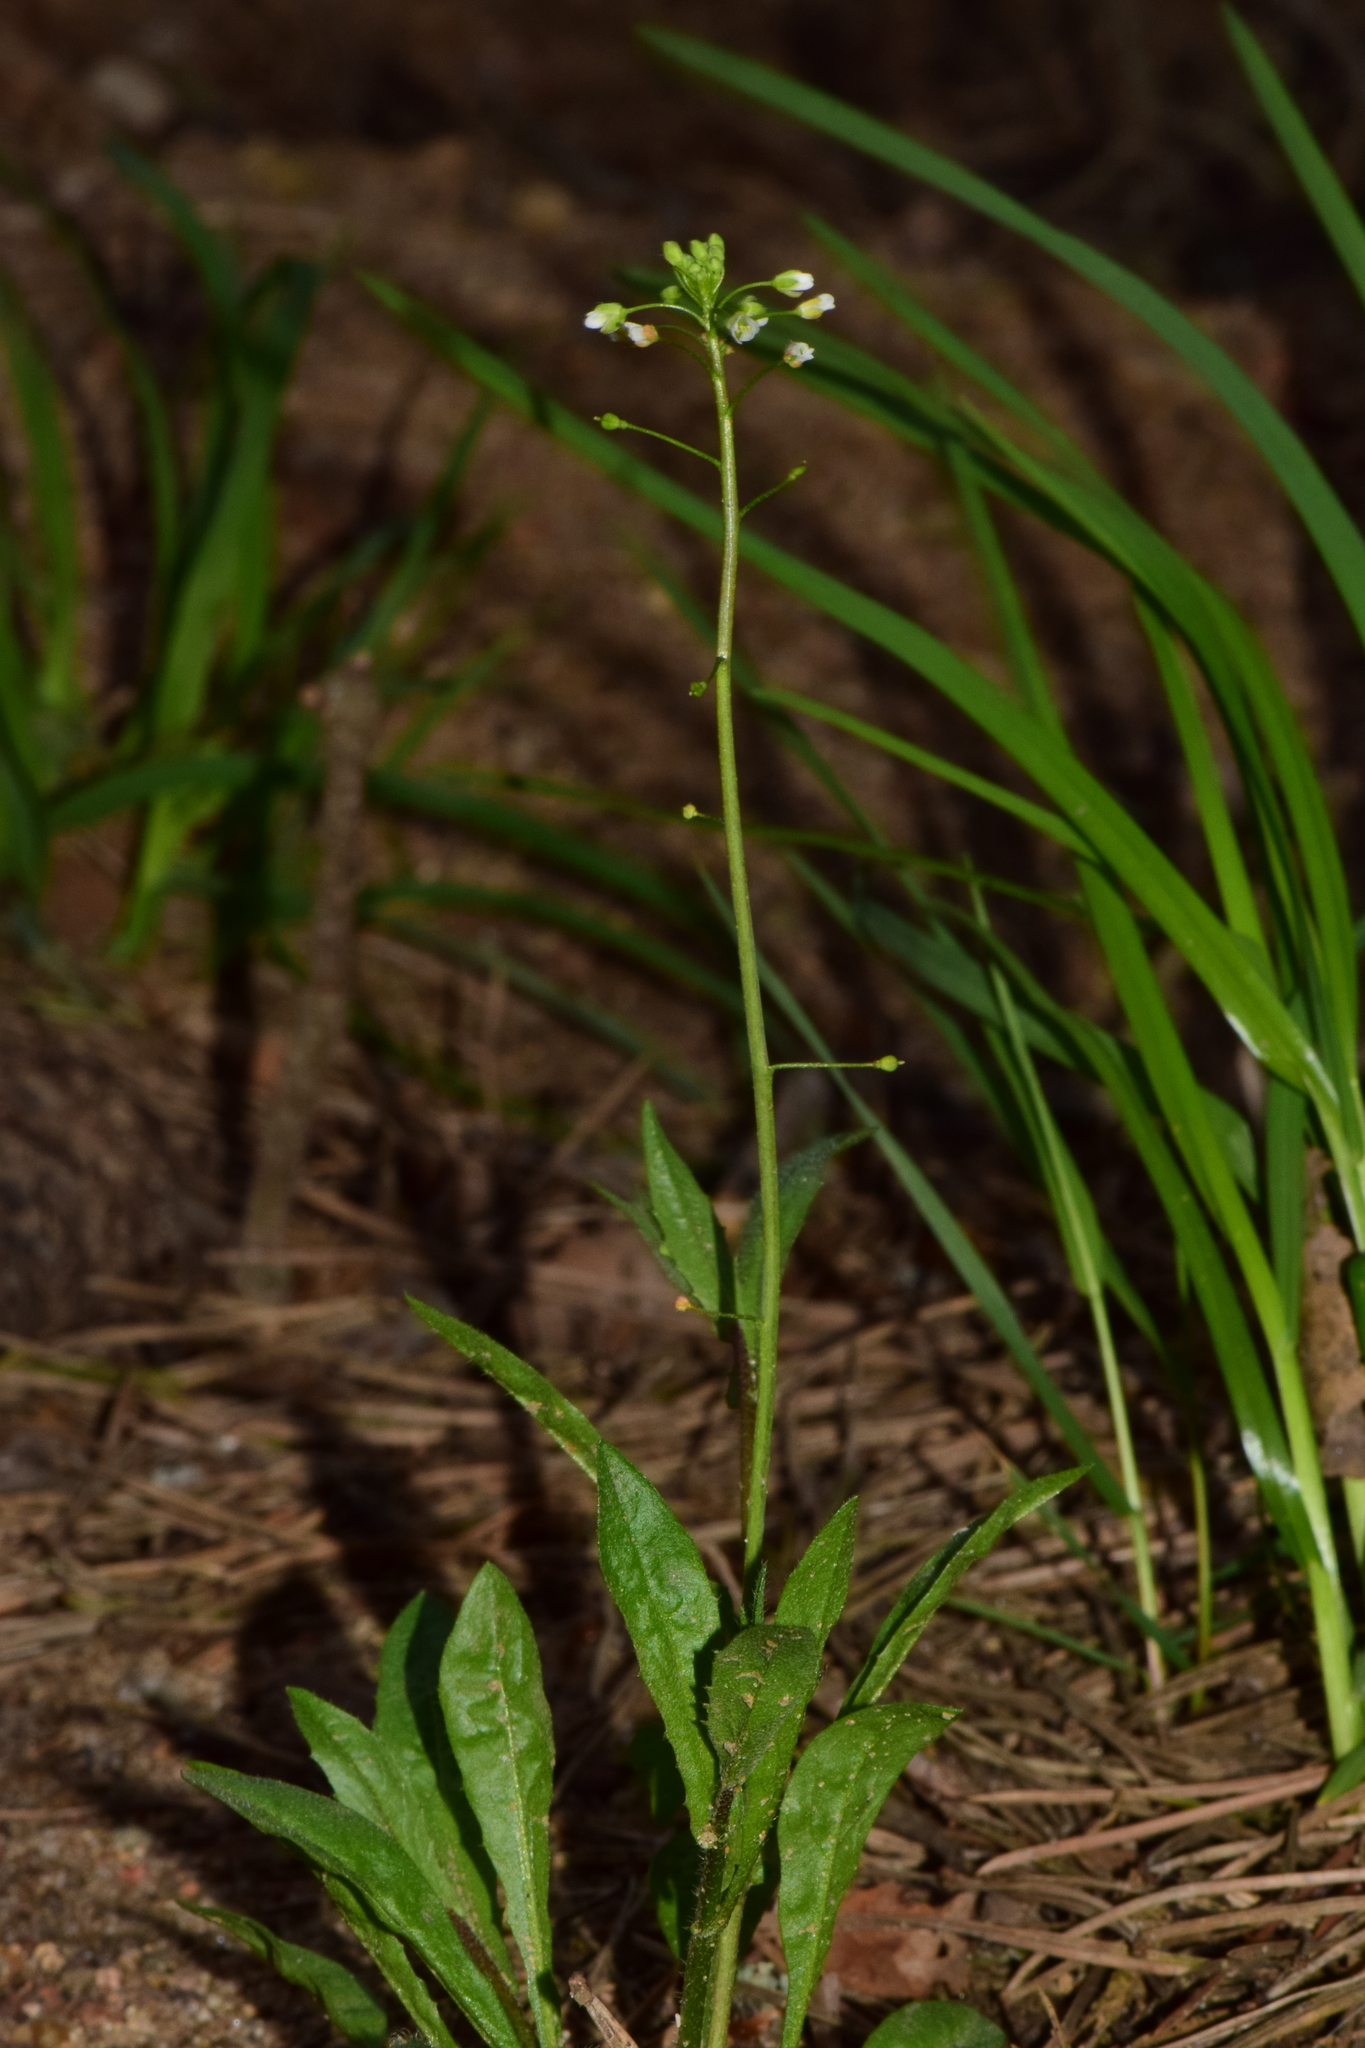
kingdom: Plantae
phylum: Tracheophyta
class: Magnoliopsida
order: Brassicales
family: Brassicaceae
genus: Capsella
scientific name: Capsella bursa-pastoris
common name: Shepherd's purse
